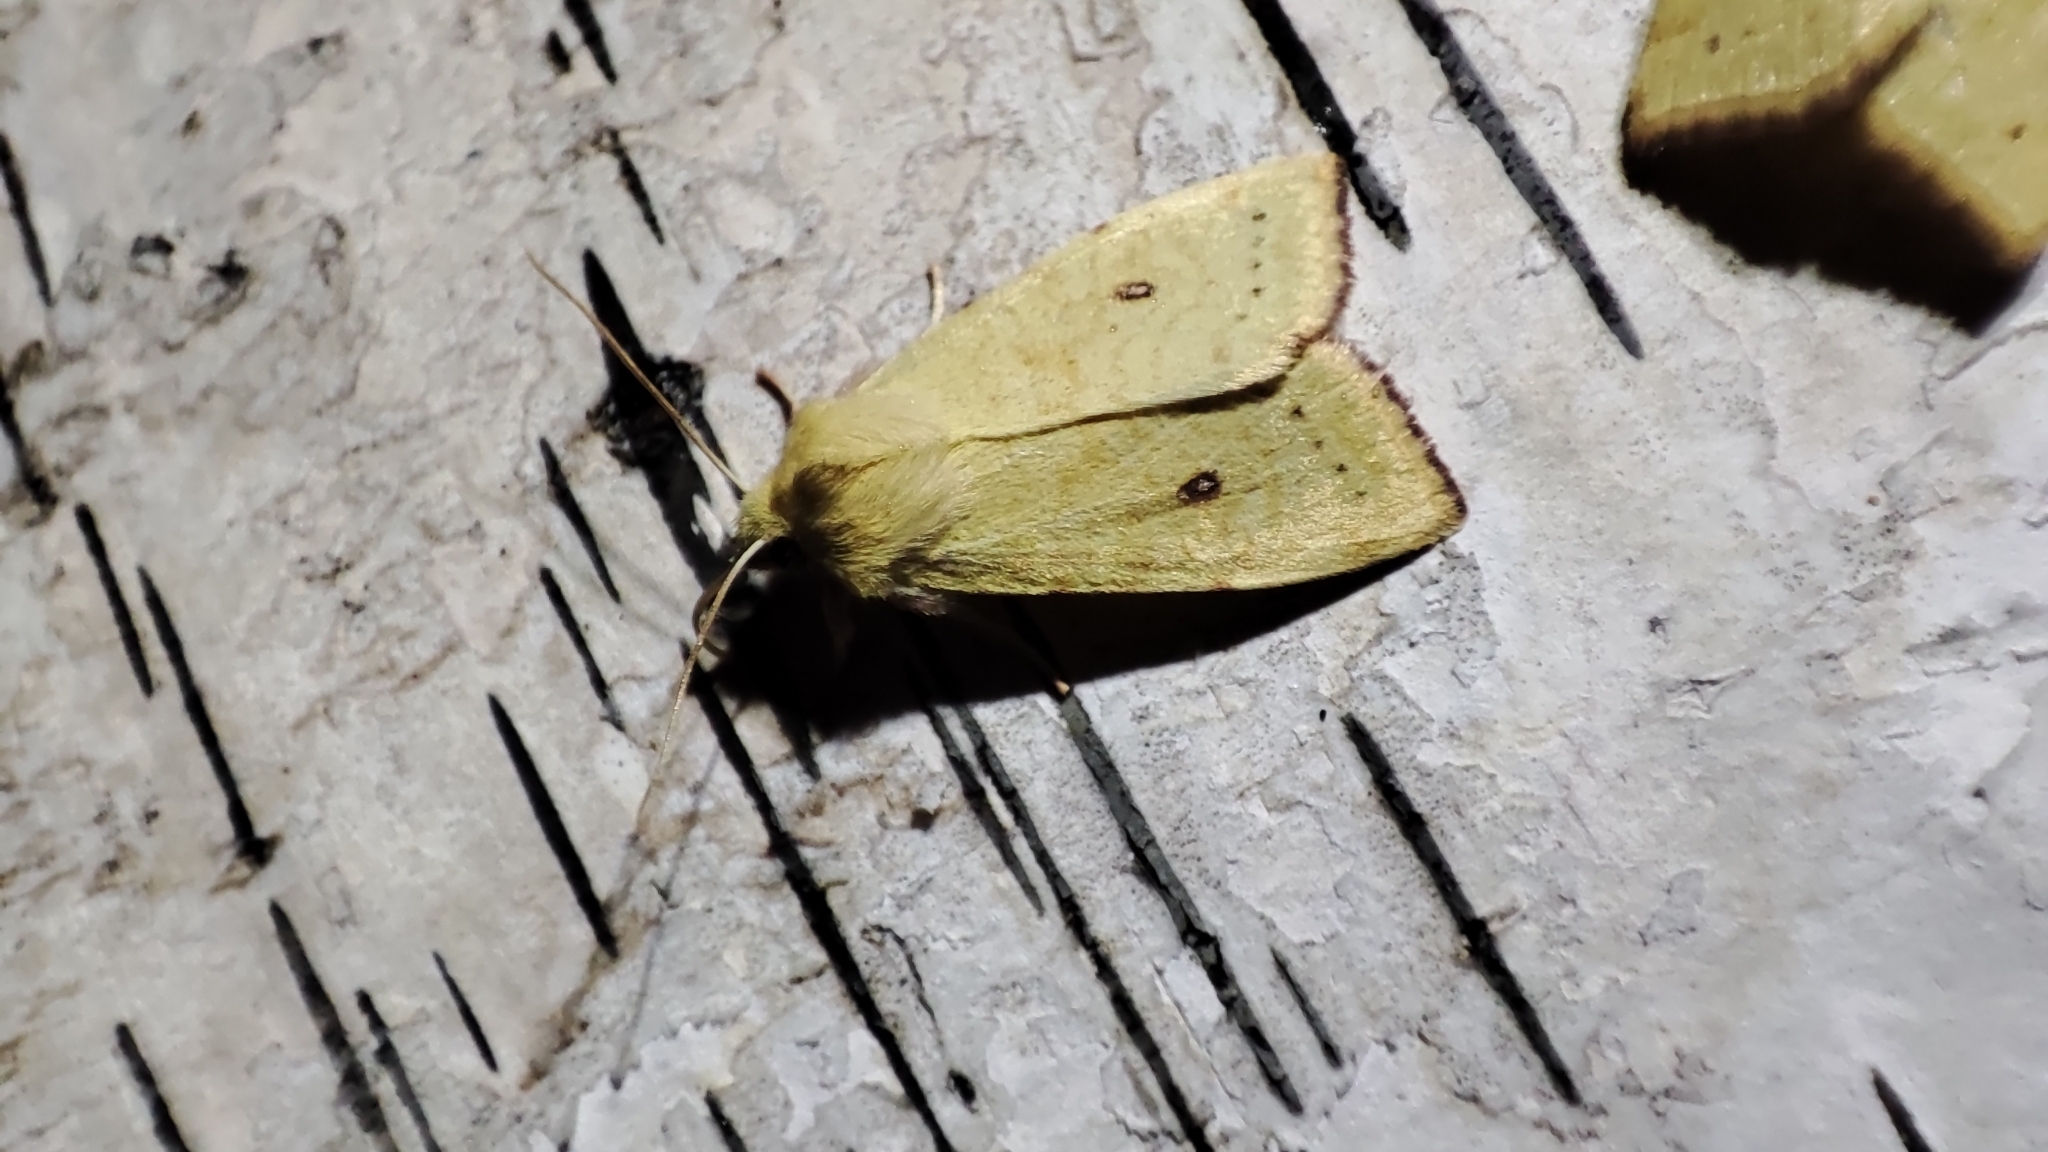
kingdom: Animalia
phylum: Arthropoda
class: Insecta
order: Lepidoptera
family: Noctuidae
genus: Xanthia
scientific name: Xanthia icteritia
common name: The sallow
